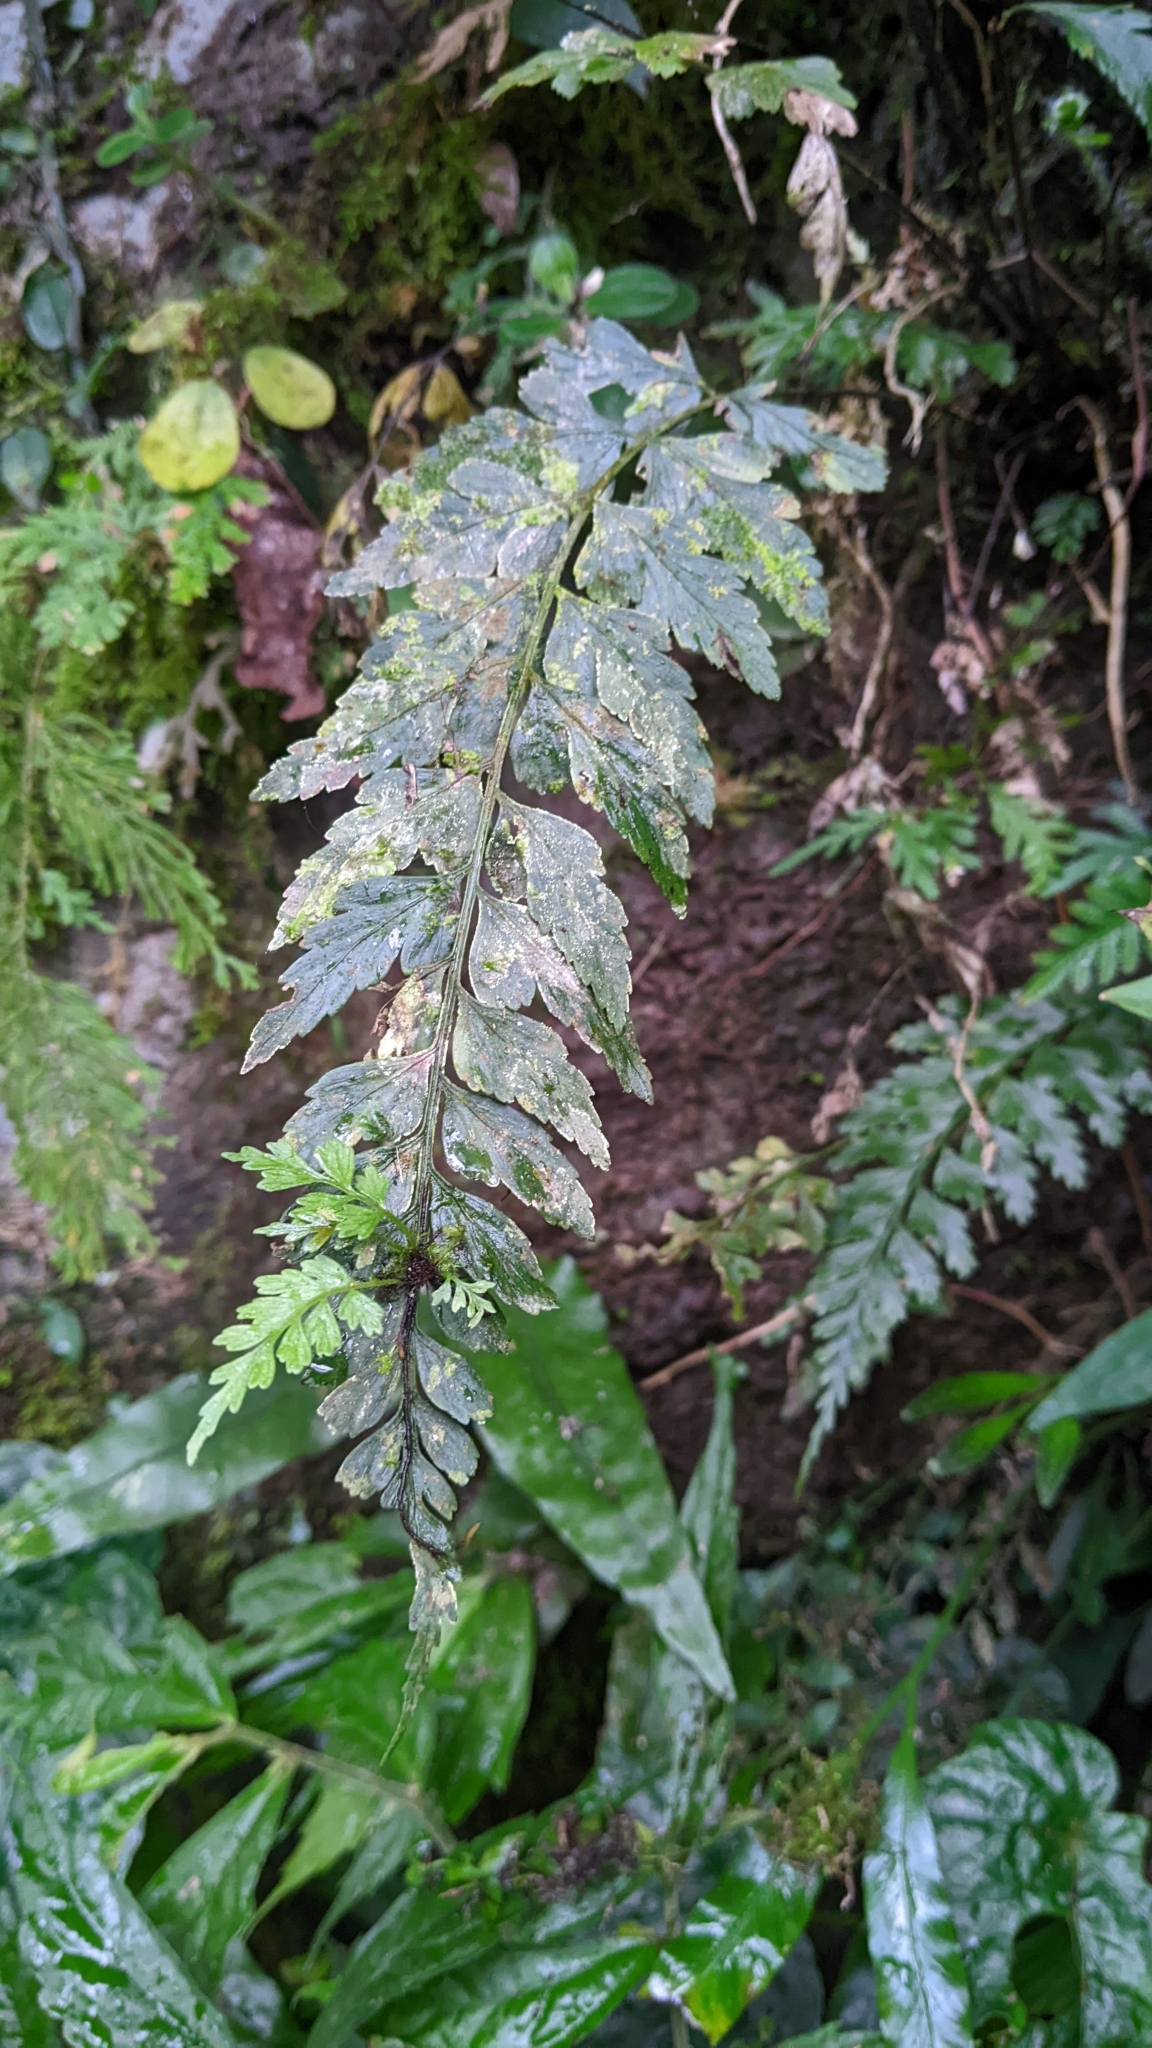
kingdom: Plantae
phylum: Tracheophyta
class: Polypodiopsida
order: Polypodiales
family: Aspleniaceae
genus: Asplenium
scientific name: Asplenium cuneatiforme
